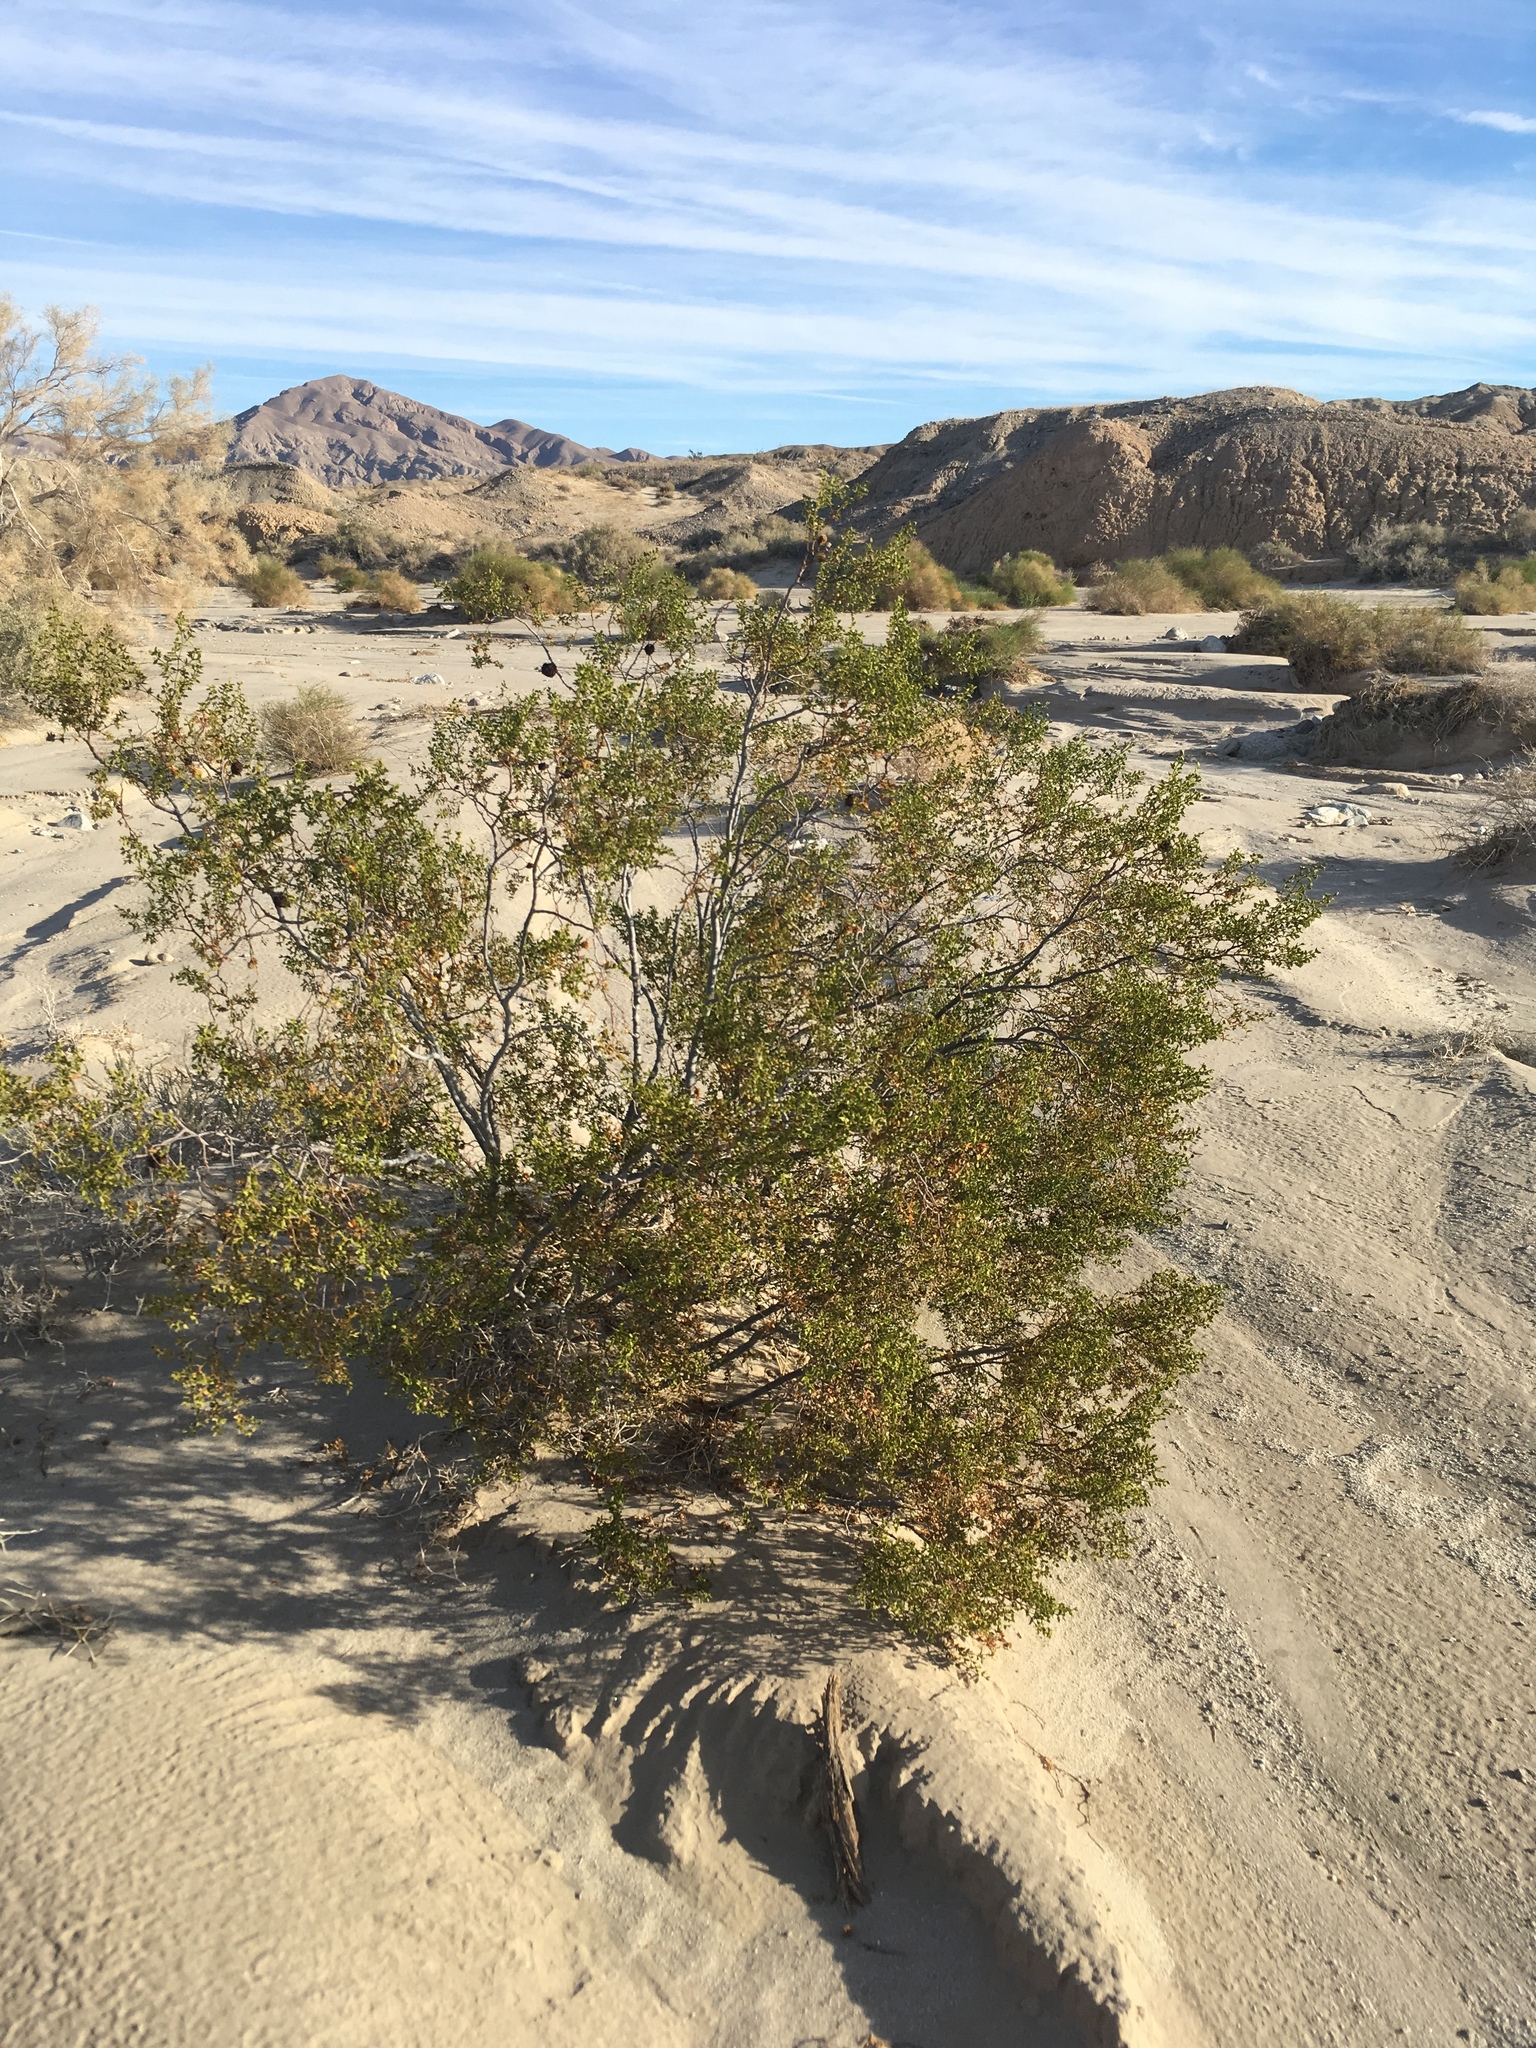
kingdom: Plantae
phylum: Tracheophyta
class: Magnoliopsida
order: Zygophyllales
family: Zygophyllaceae
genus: Larrea
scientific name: Larrea tridentata
